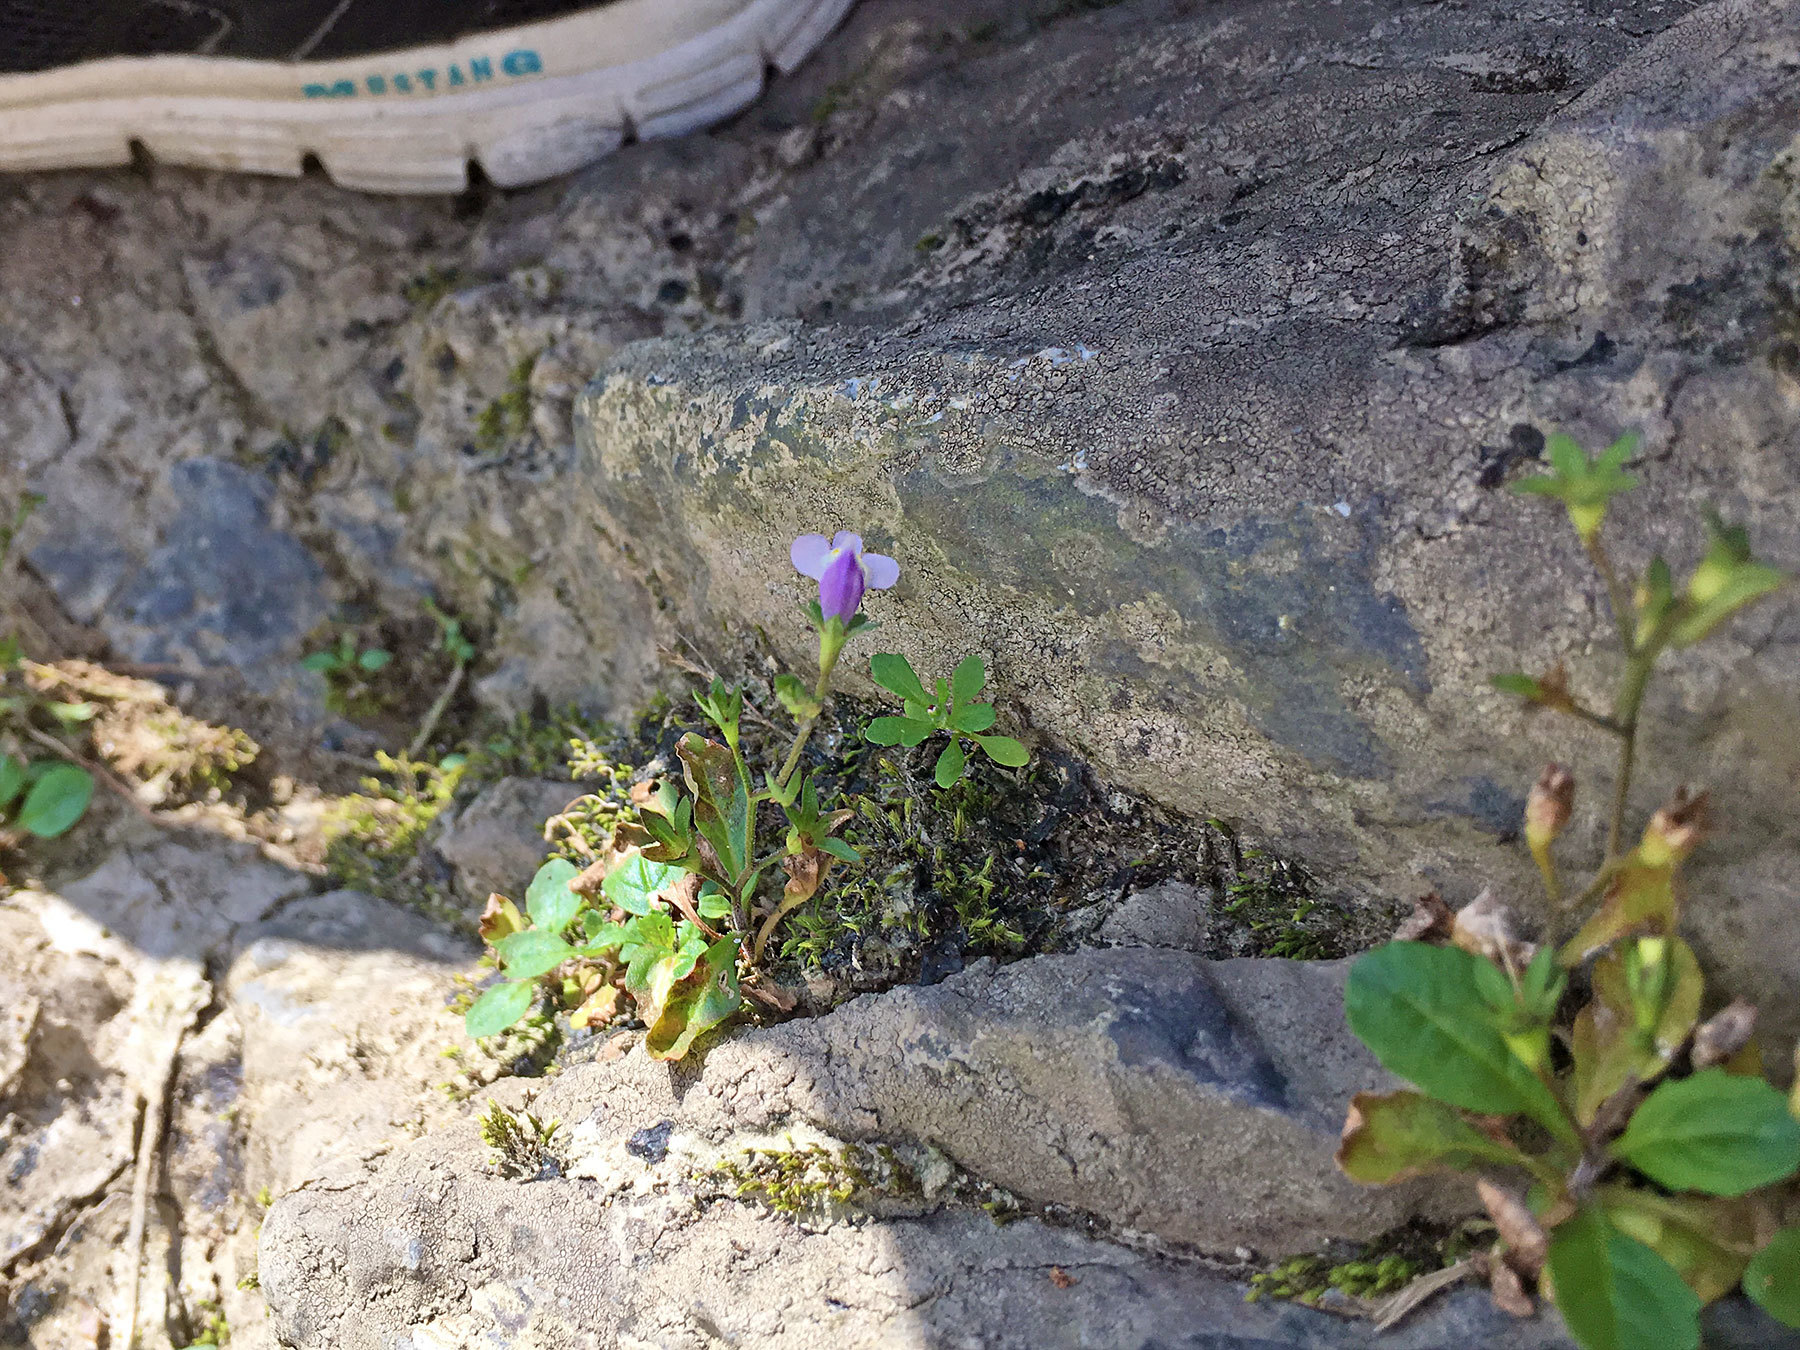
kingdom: Plantae
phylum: Tracheophyta
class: Magnoliopsida
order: Lamiales
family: Mazaceae
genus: Mazus
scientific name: Mazus pumilus
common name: Japanese mazus
